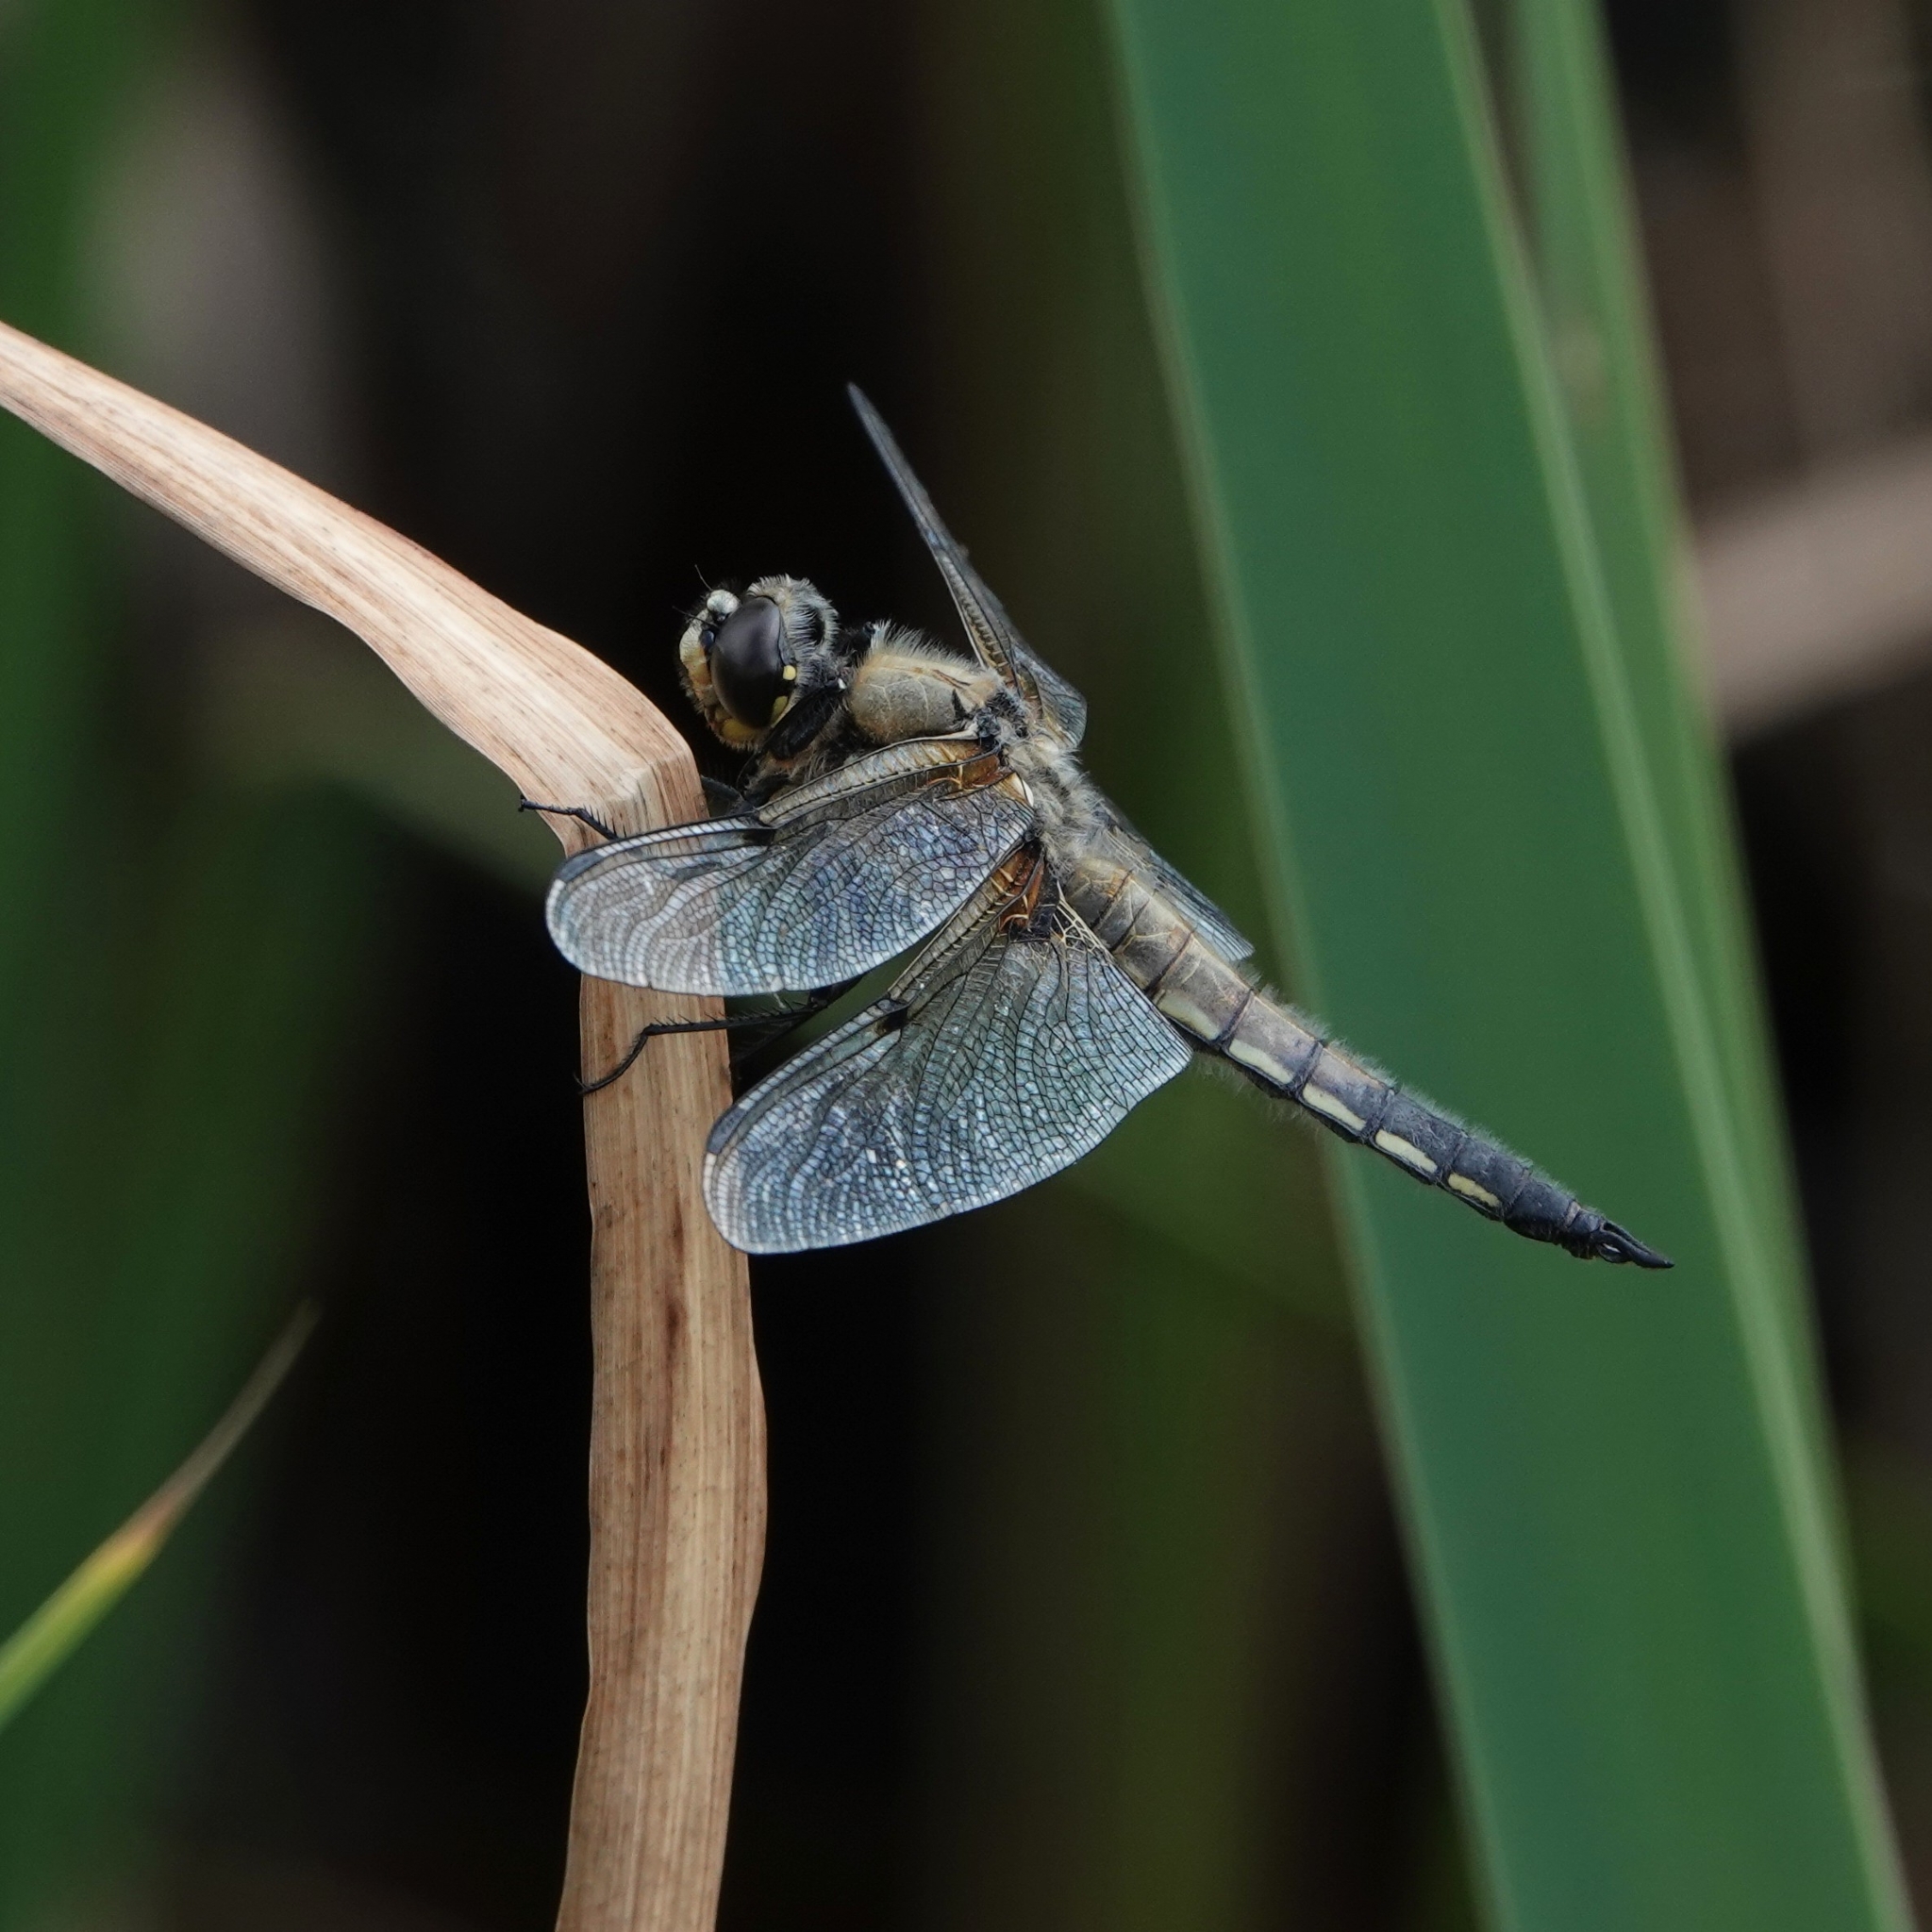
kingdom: Animalia
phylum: Arthropoda
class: Insecta
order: Odonata
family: Libellulidae
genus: Libellula
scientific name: Libellula quadrimaculata
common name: Four-spotted chaser
